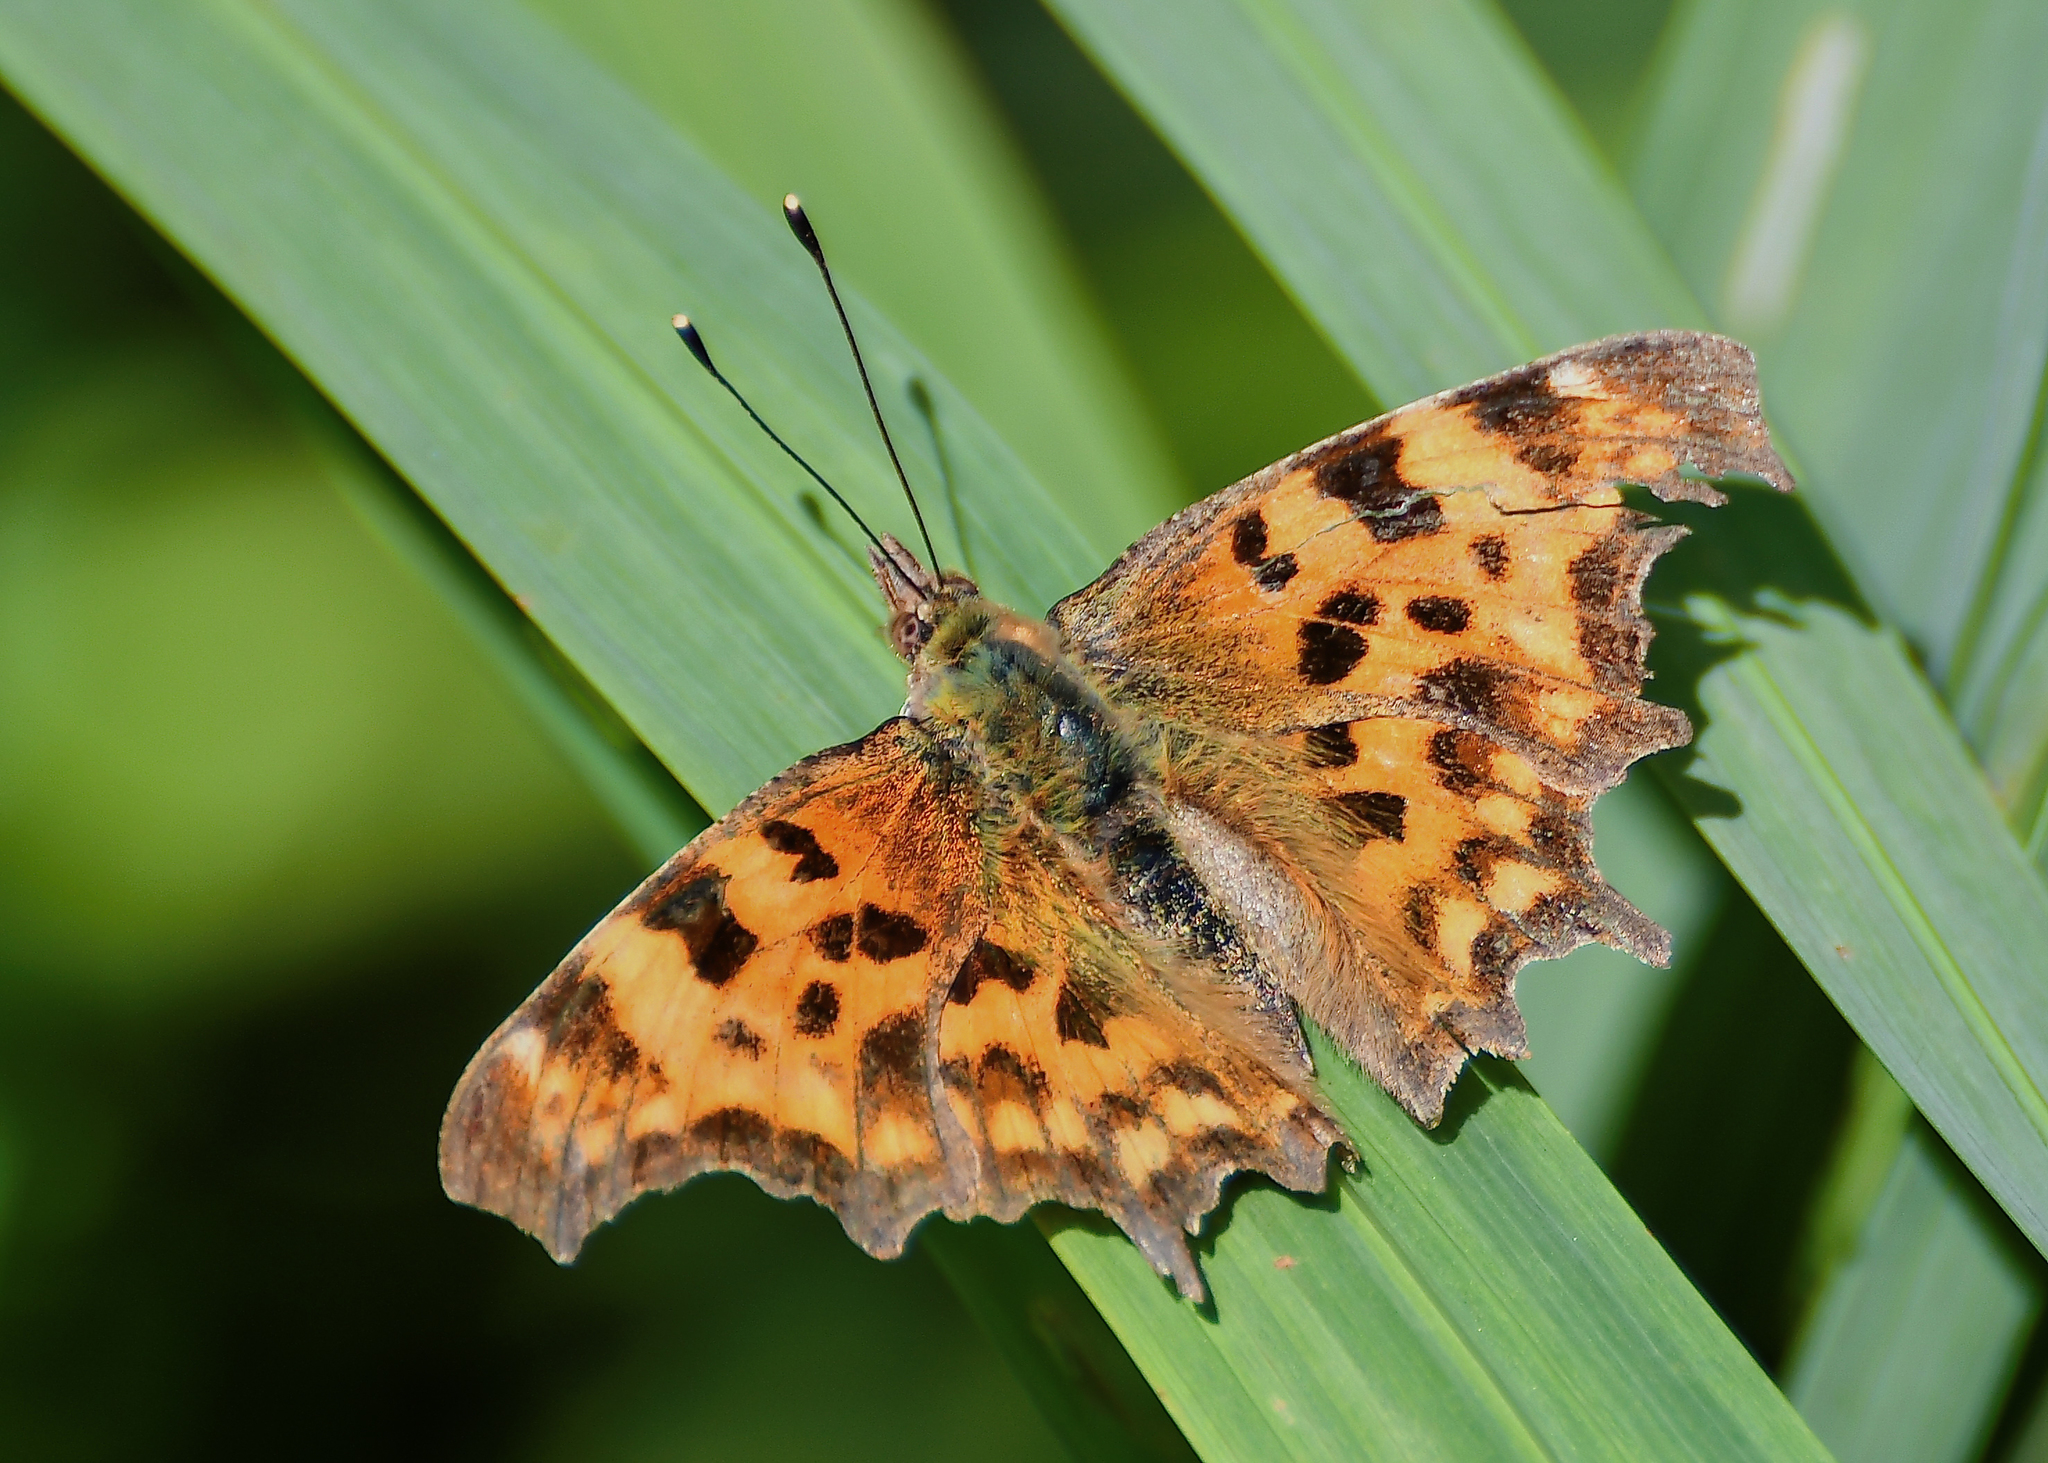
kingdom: Animalia
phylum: Arthropoda
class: Insecta
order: Lepidoptera
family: Nymphalidae
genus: Polygonia
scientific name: Polygonia c-album
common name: Comma
